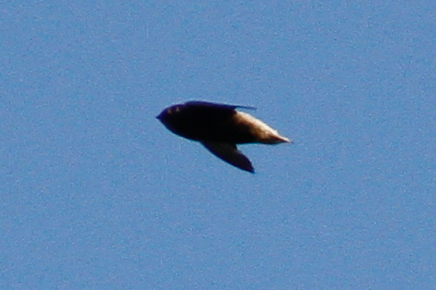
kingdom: Animalia
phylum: Chordata
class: Aves
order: Apodiformes
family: Apodidae
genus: Chaetura
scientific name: Chaetura brachyura
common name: Short-tailed swift
